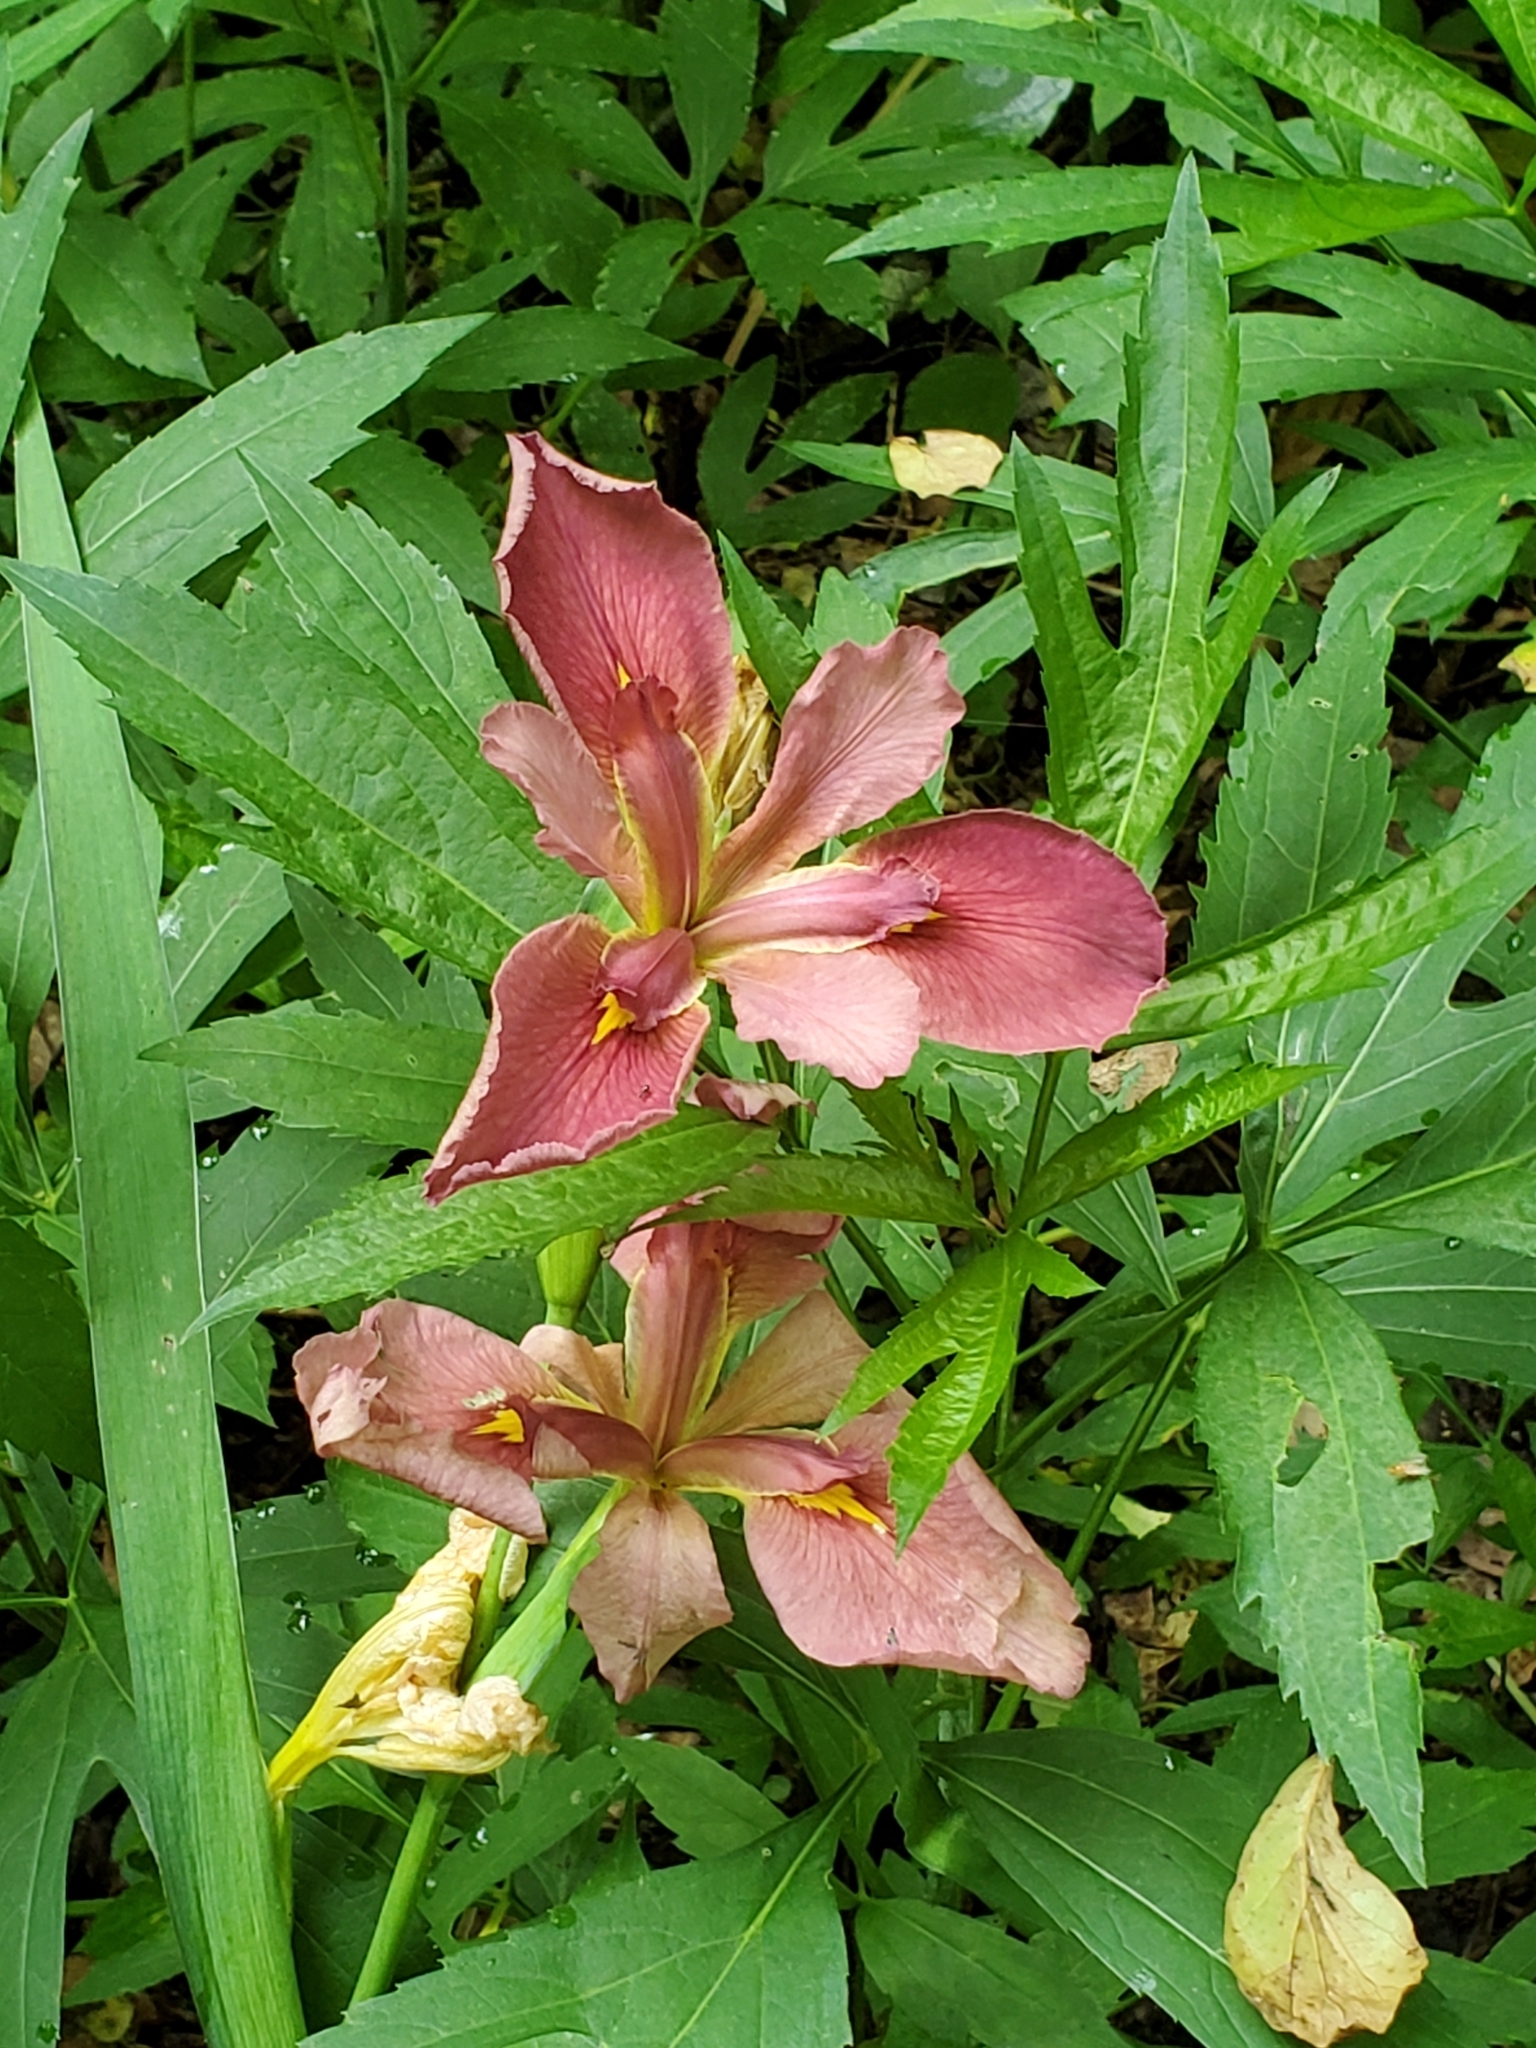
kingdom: Plantae
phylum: Tracheophyta
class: Liliopsida
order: Asparagales
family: Iridaceae
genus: Iris
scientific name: Iris fulva
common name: Copper iris
